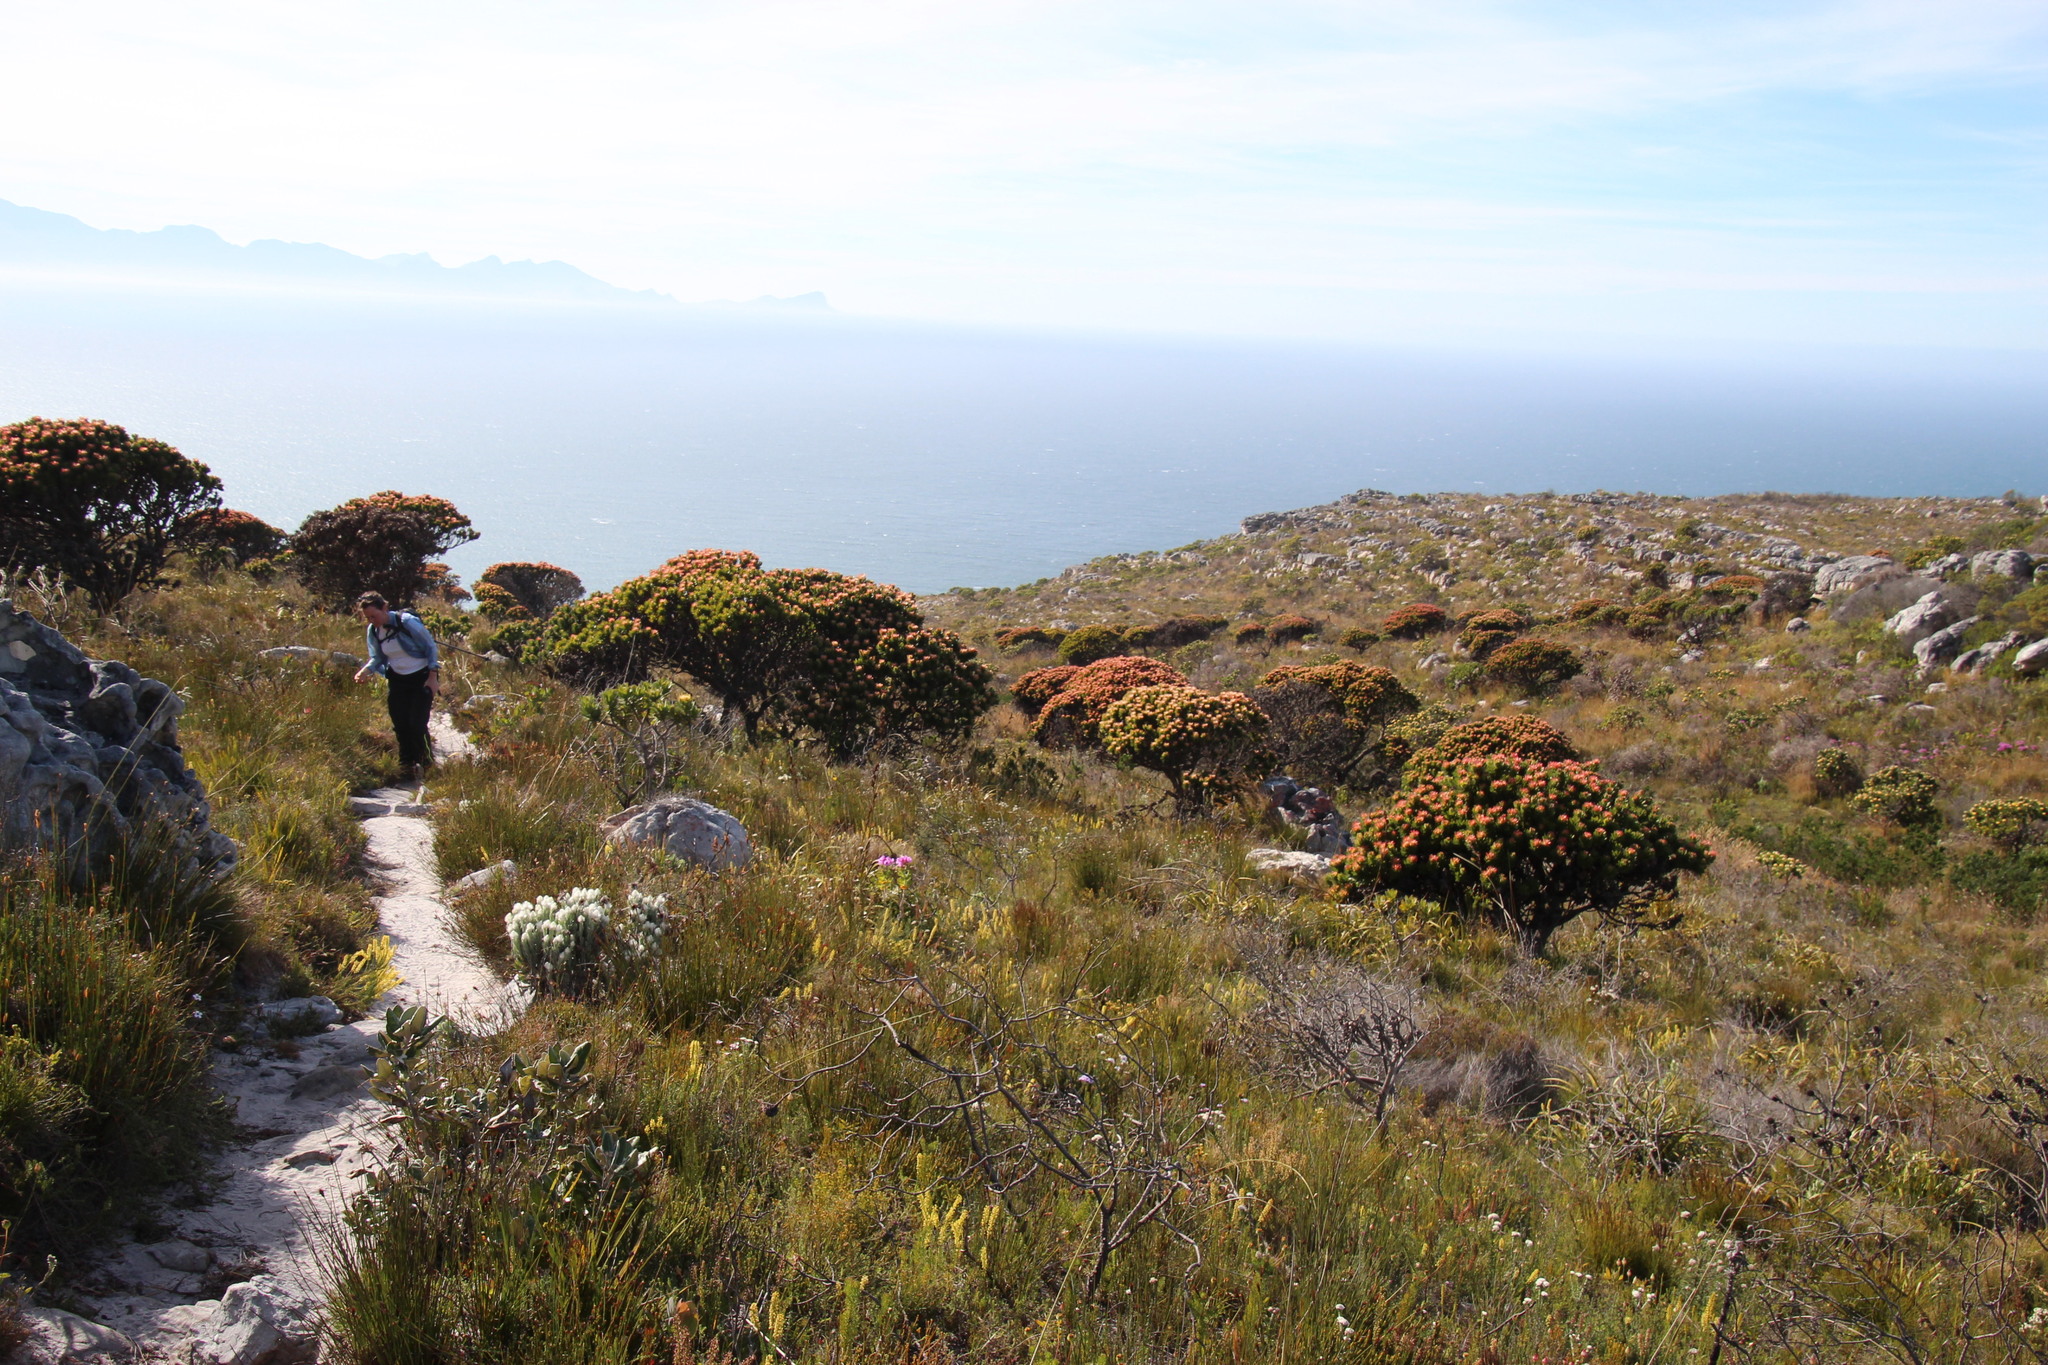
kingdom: Plantae
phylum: Tracheophyta
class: Magnoliopsida
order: Proteales
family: Proteaceae
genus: Mimetes
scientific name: Mimetes fimbriifolius
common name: Fringed bottlebrush
